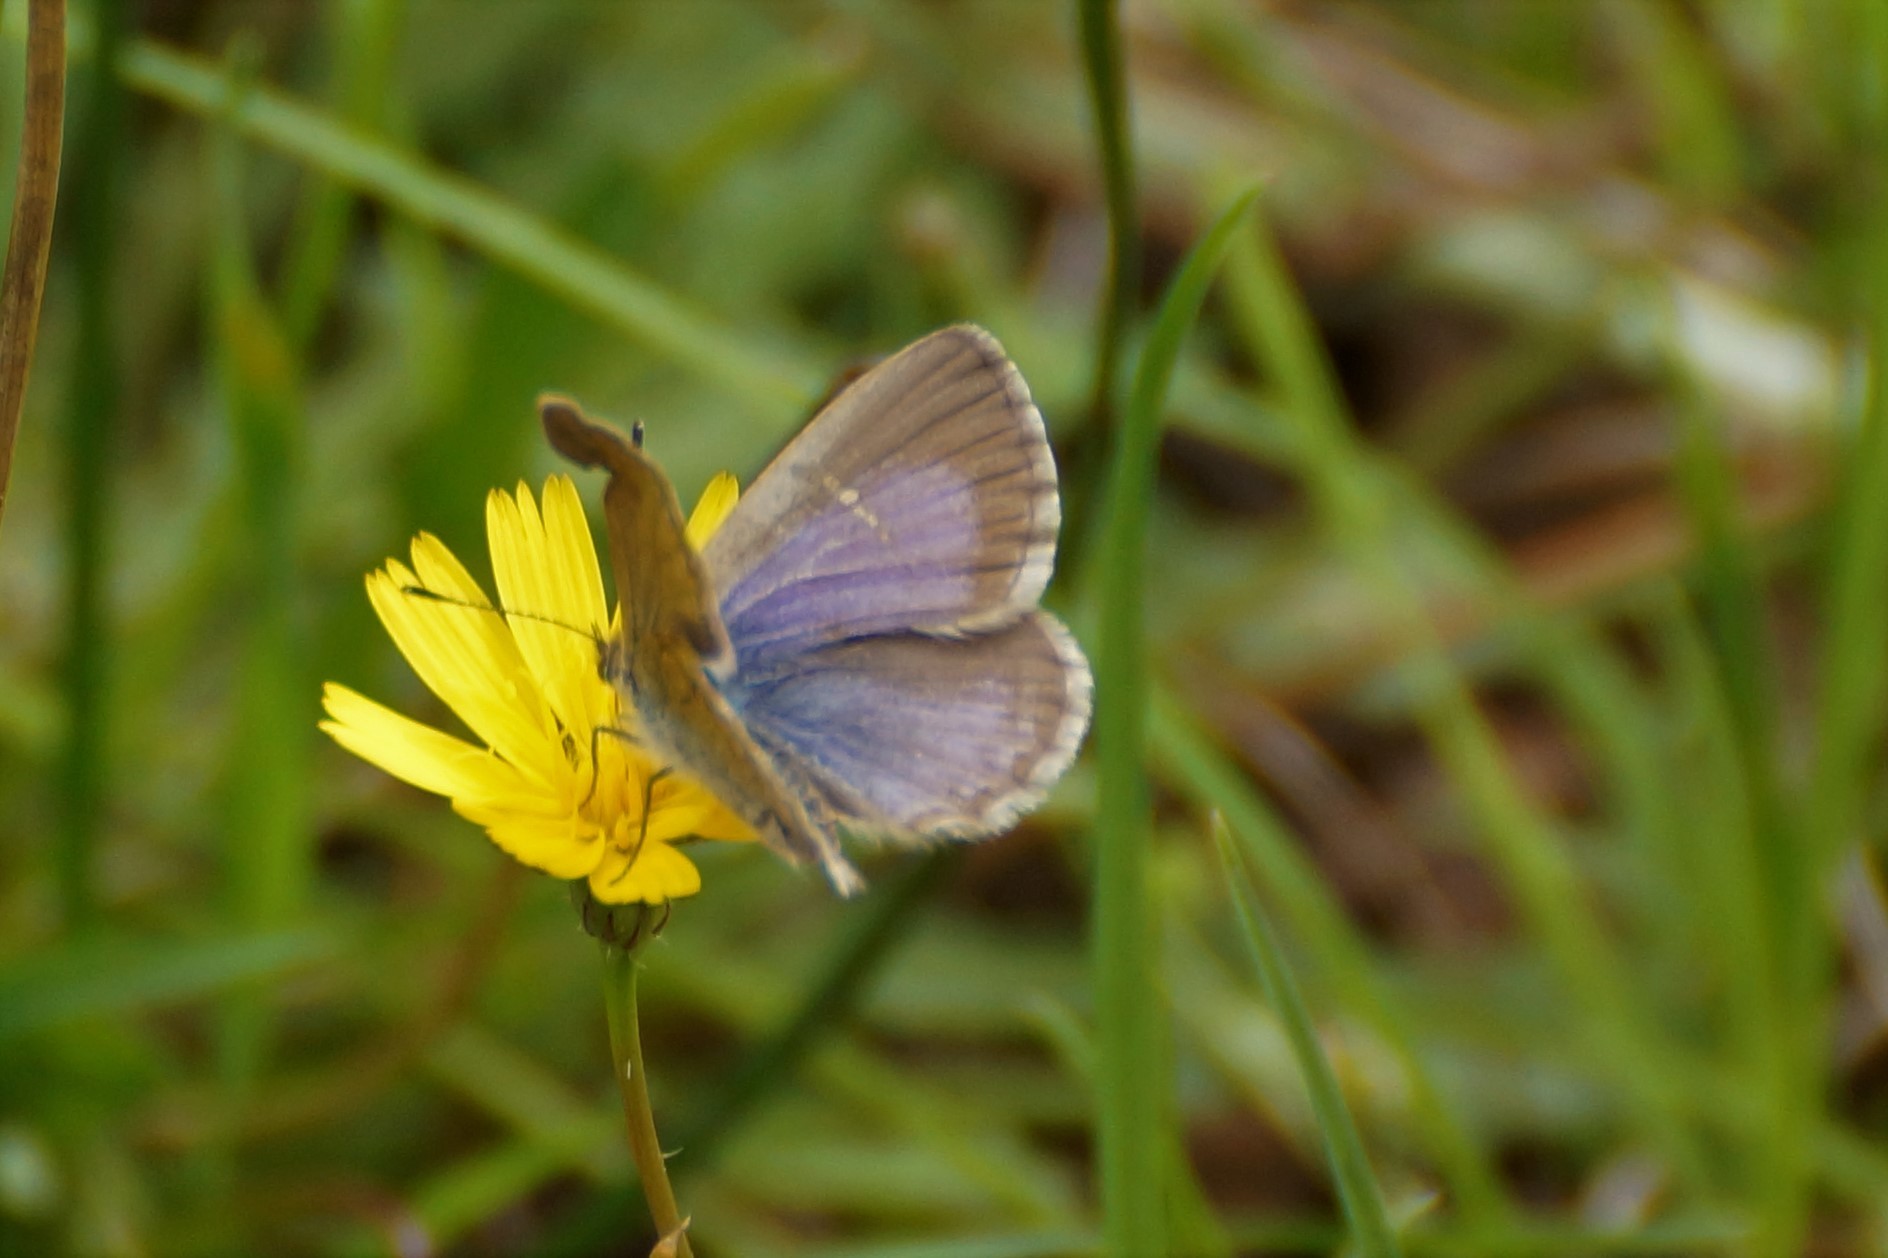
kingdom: Animalia
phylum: Arthropoda
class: Insecta
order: Lepidoptera
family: Lycaenidae
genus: Zizina
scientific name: Zizina labradus
